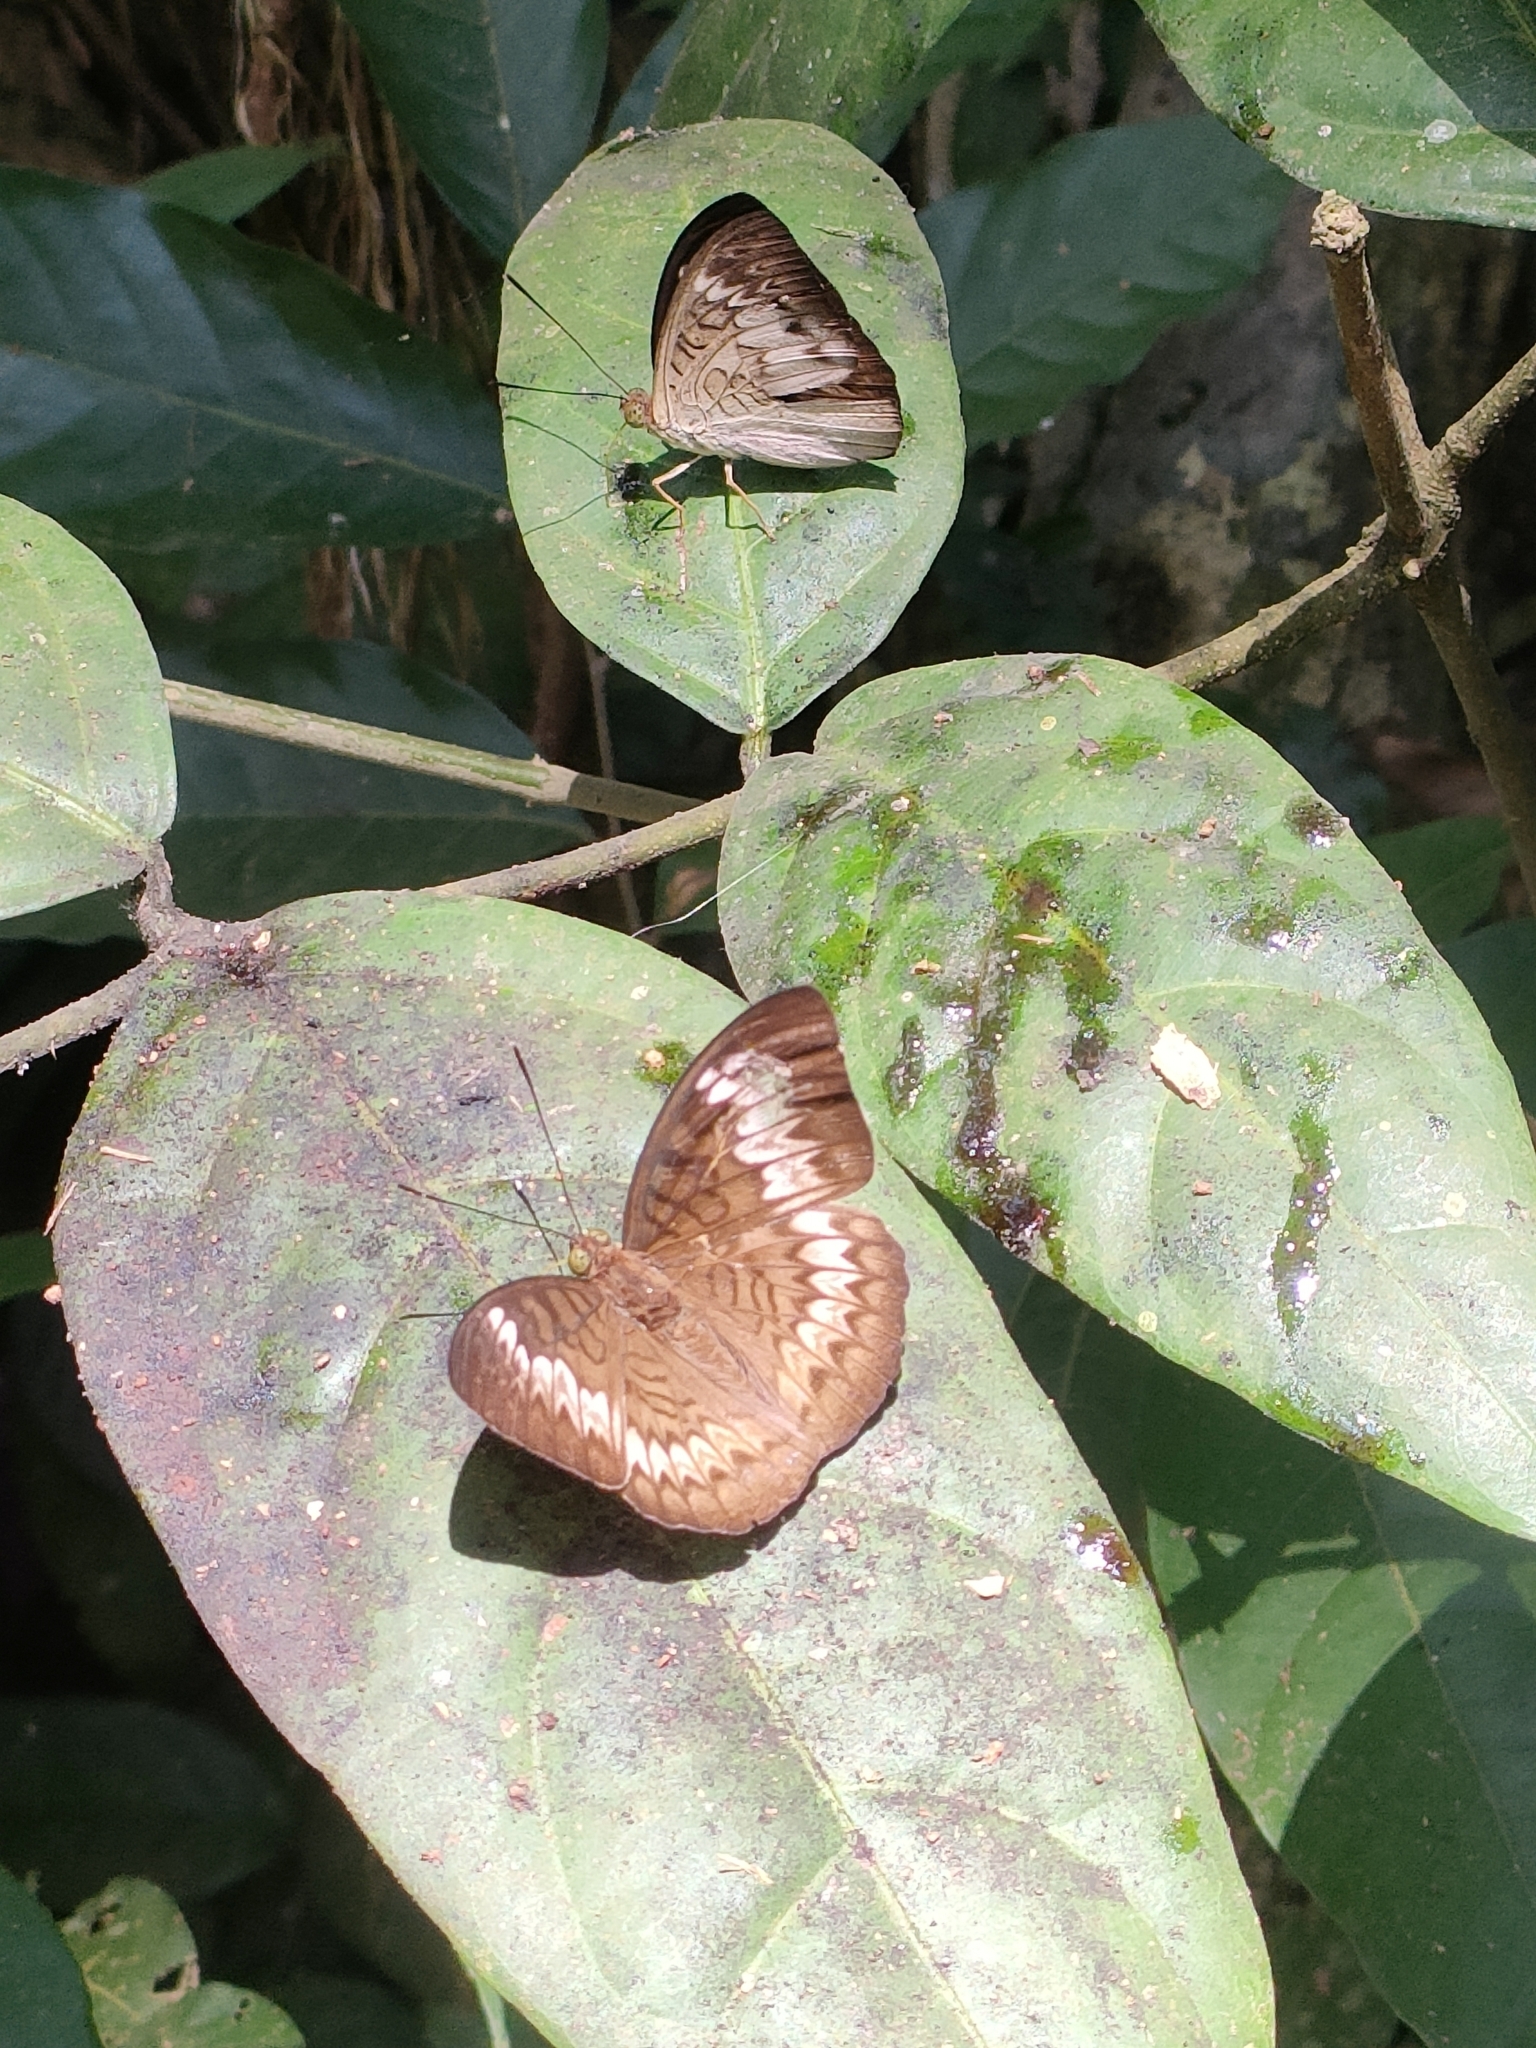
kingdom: Animalia
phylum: Arthropoda
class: Insecta
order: Lepidoptera
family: Nymphalidae
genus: Tanaecia
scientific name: Tanaecia palguna
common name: Long-lined viscount
